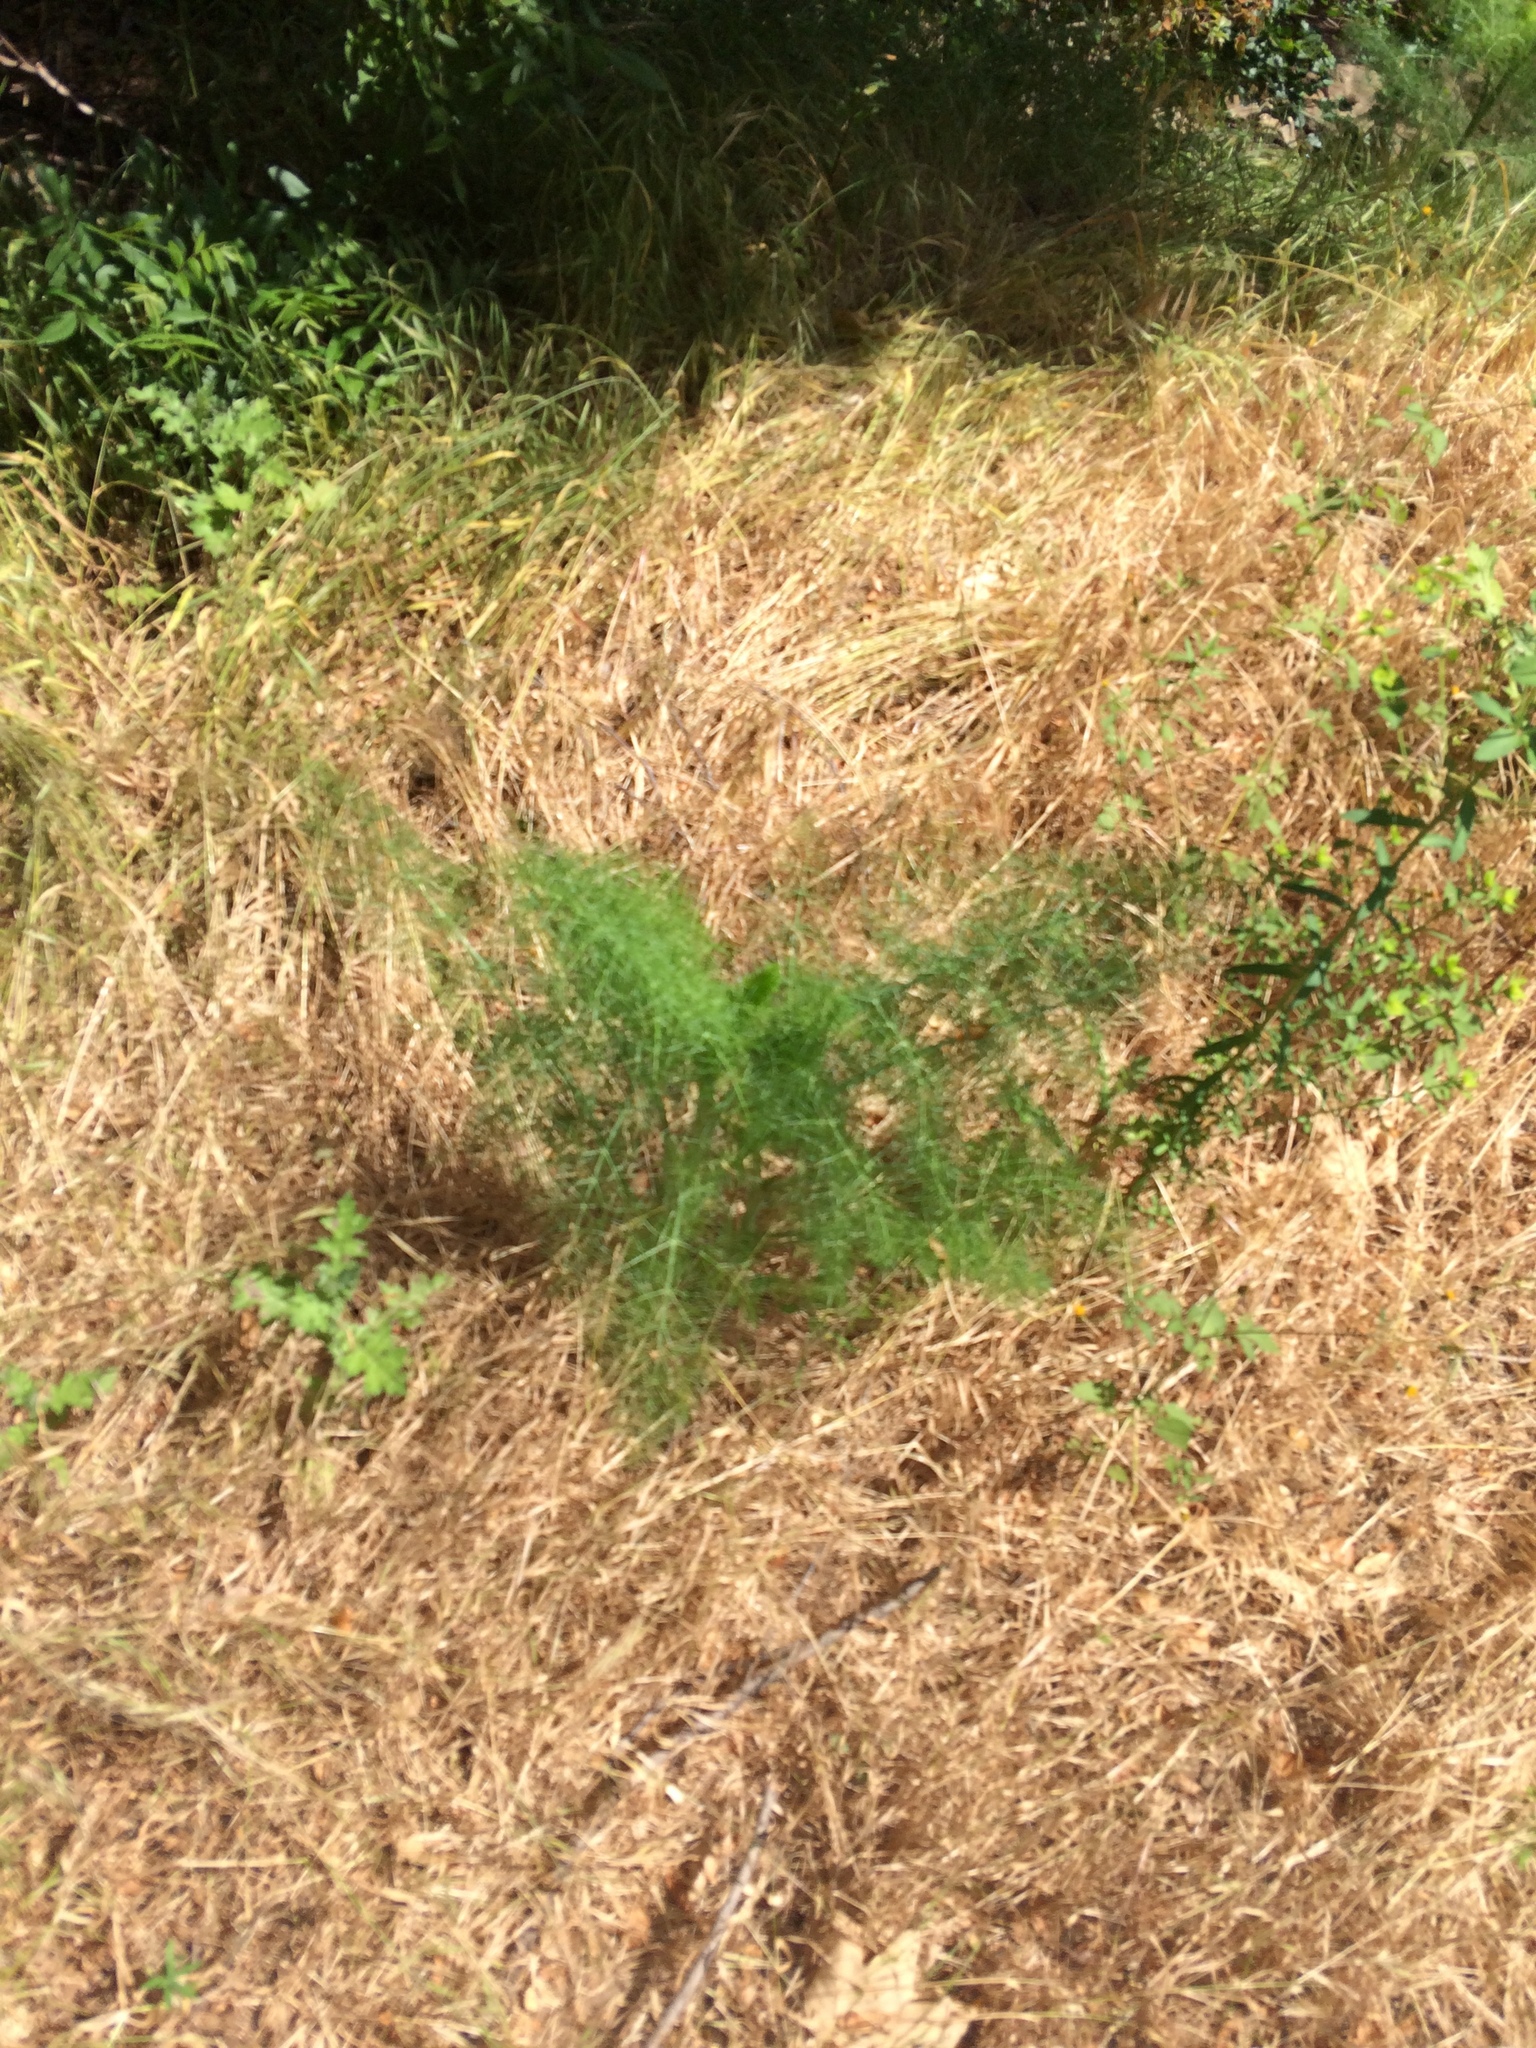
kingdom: Plantae
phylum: Tracheophyta
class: Magnoliopsida
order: Apiales
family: Apiaceae
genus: Foeniculum
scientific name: Foeniculum vulgare
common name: Fennel
